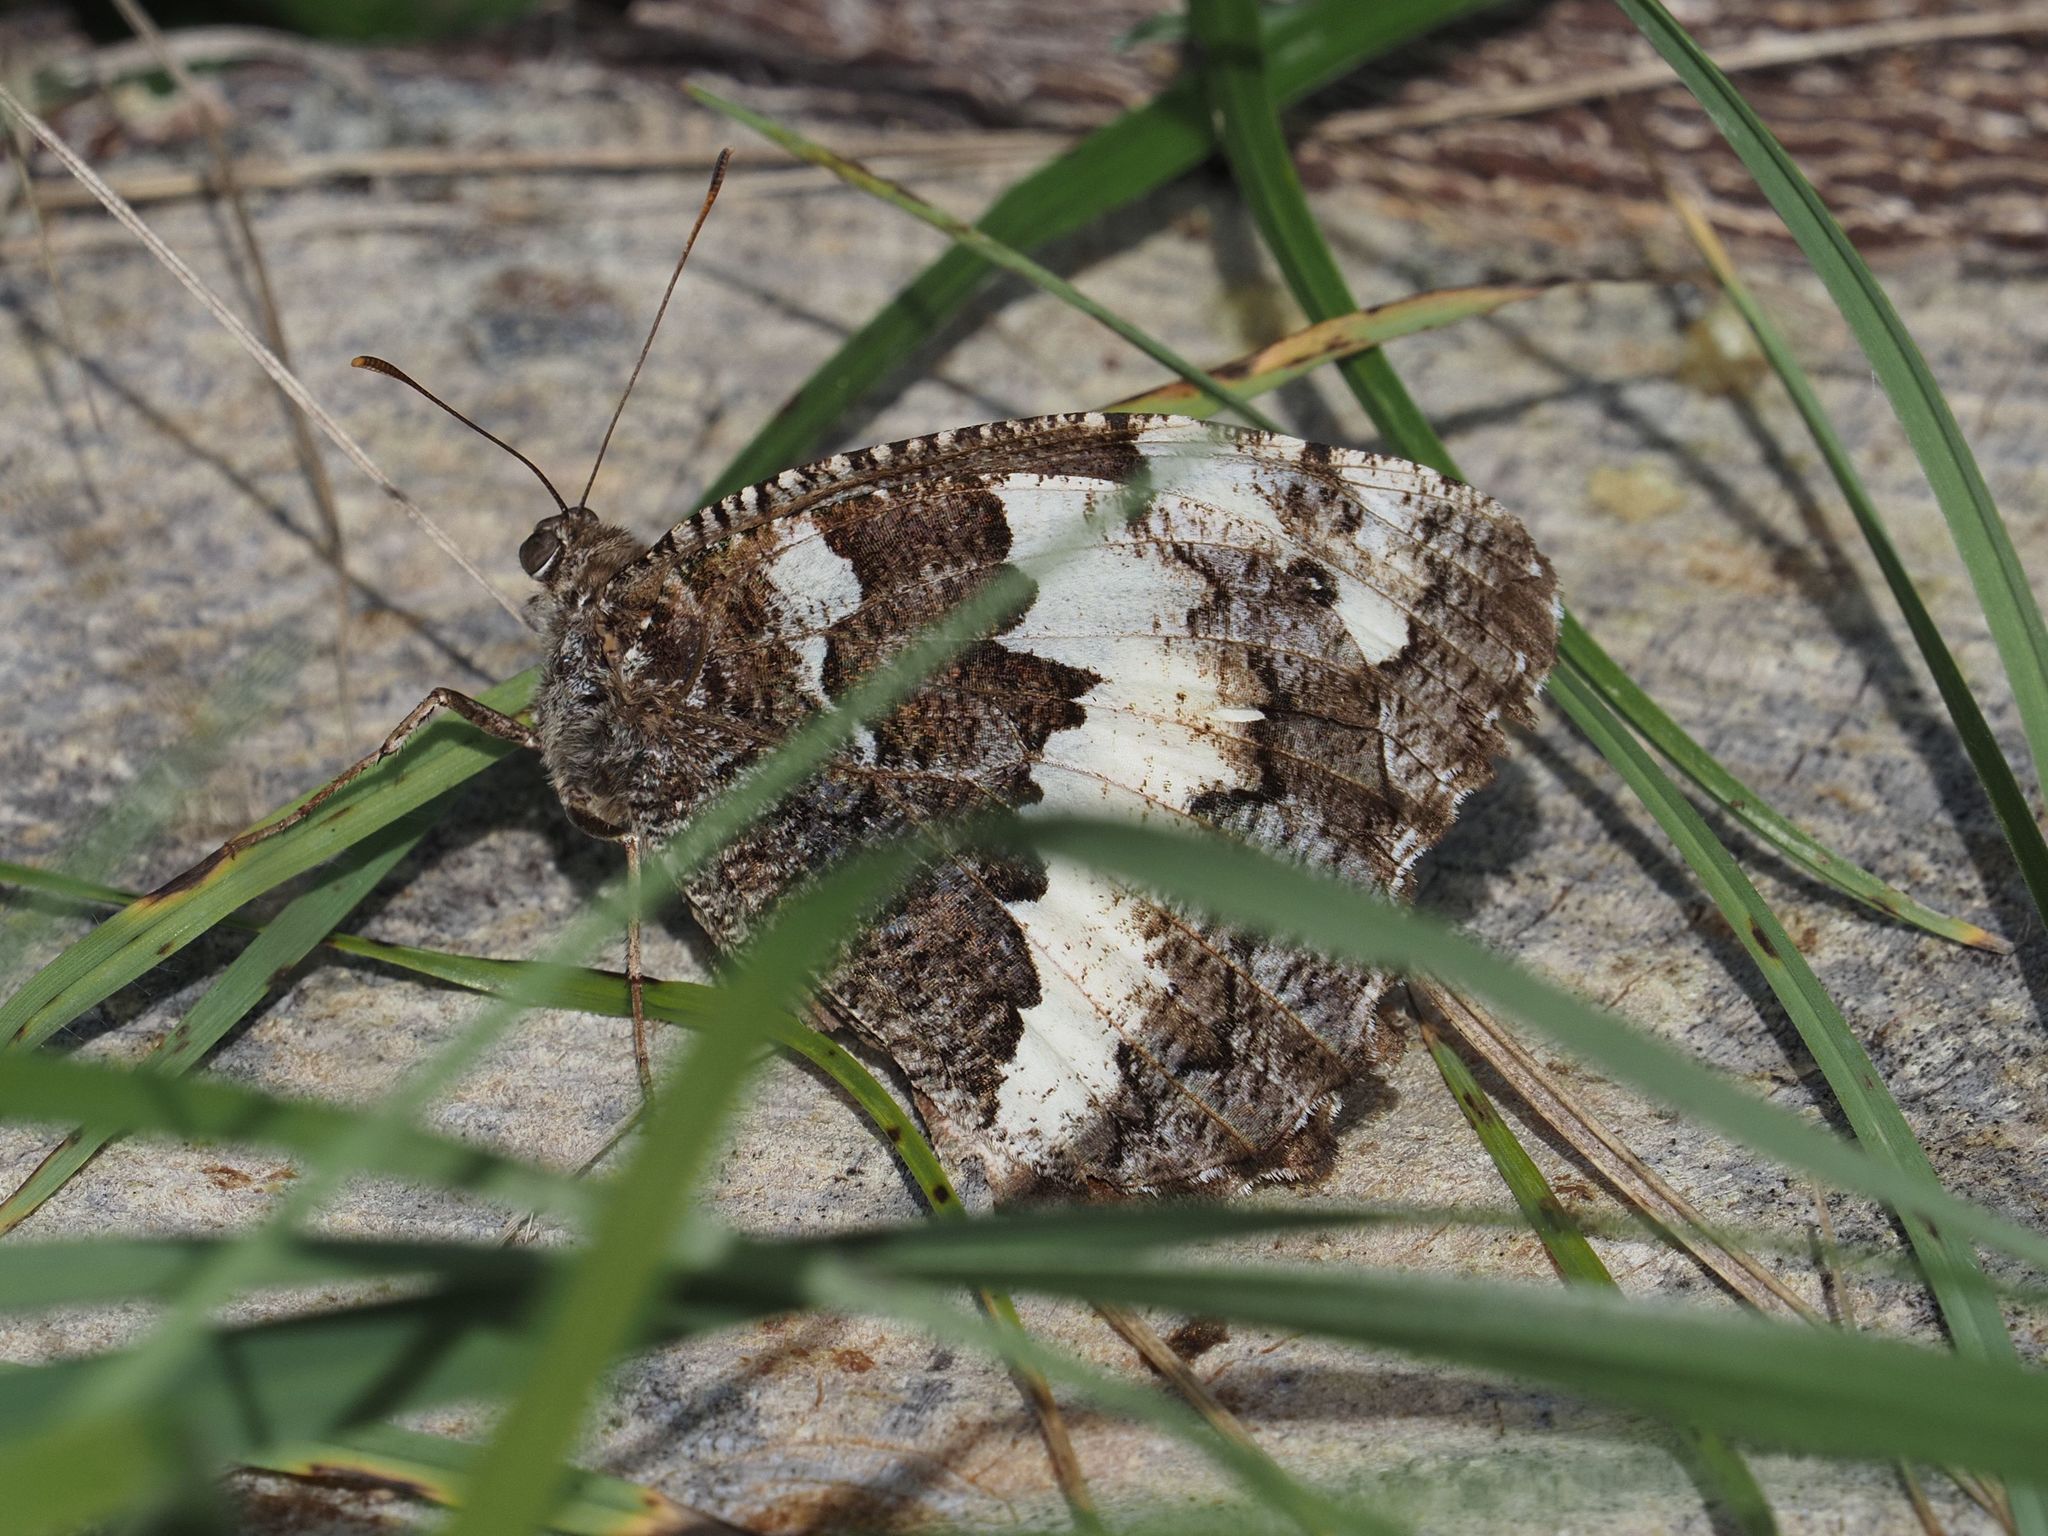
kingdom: Animalia
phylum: Arthropoda
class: Insecta
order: Lepidoptera
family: Lycaenidae
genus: Loweia
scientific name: Loweia tityrus
